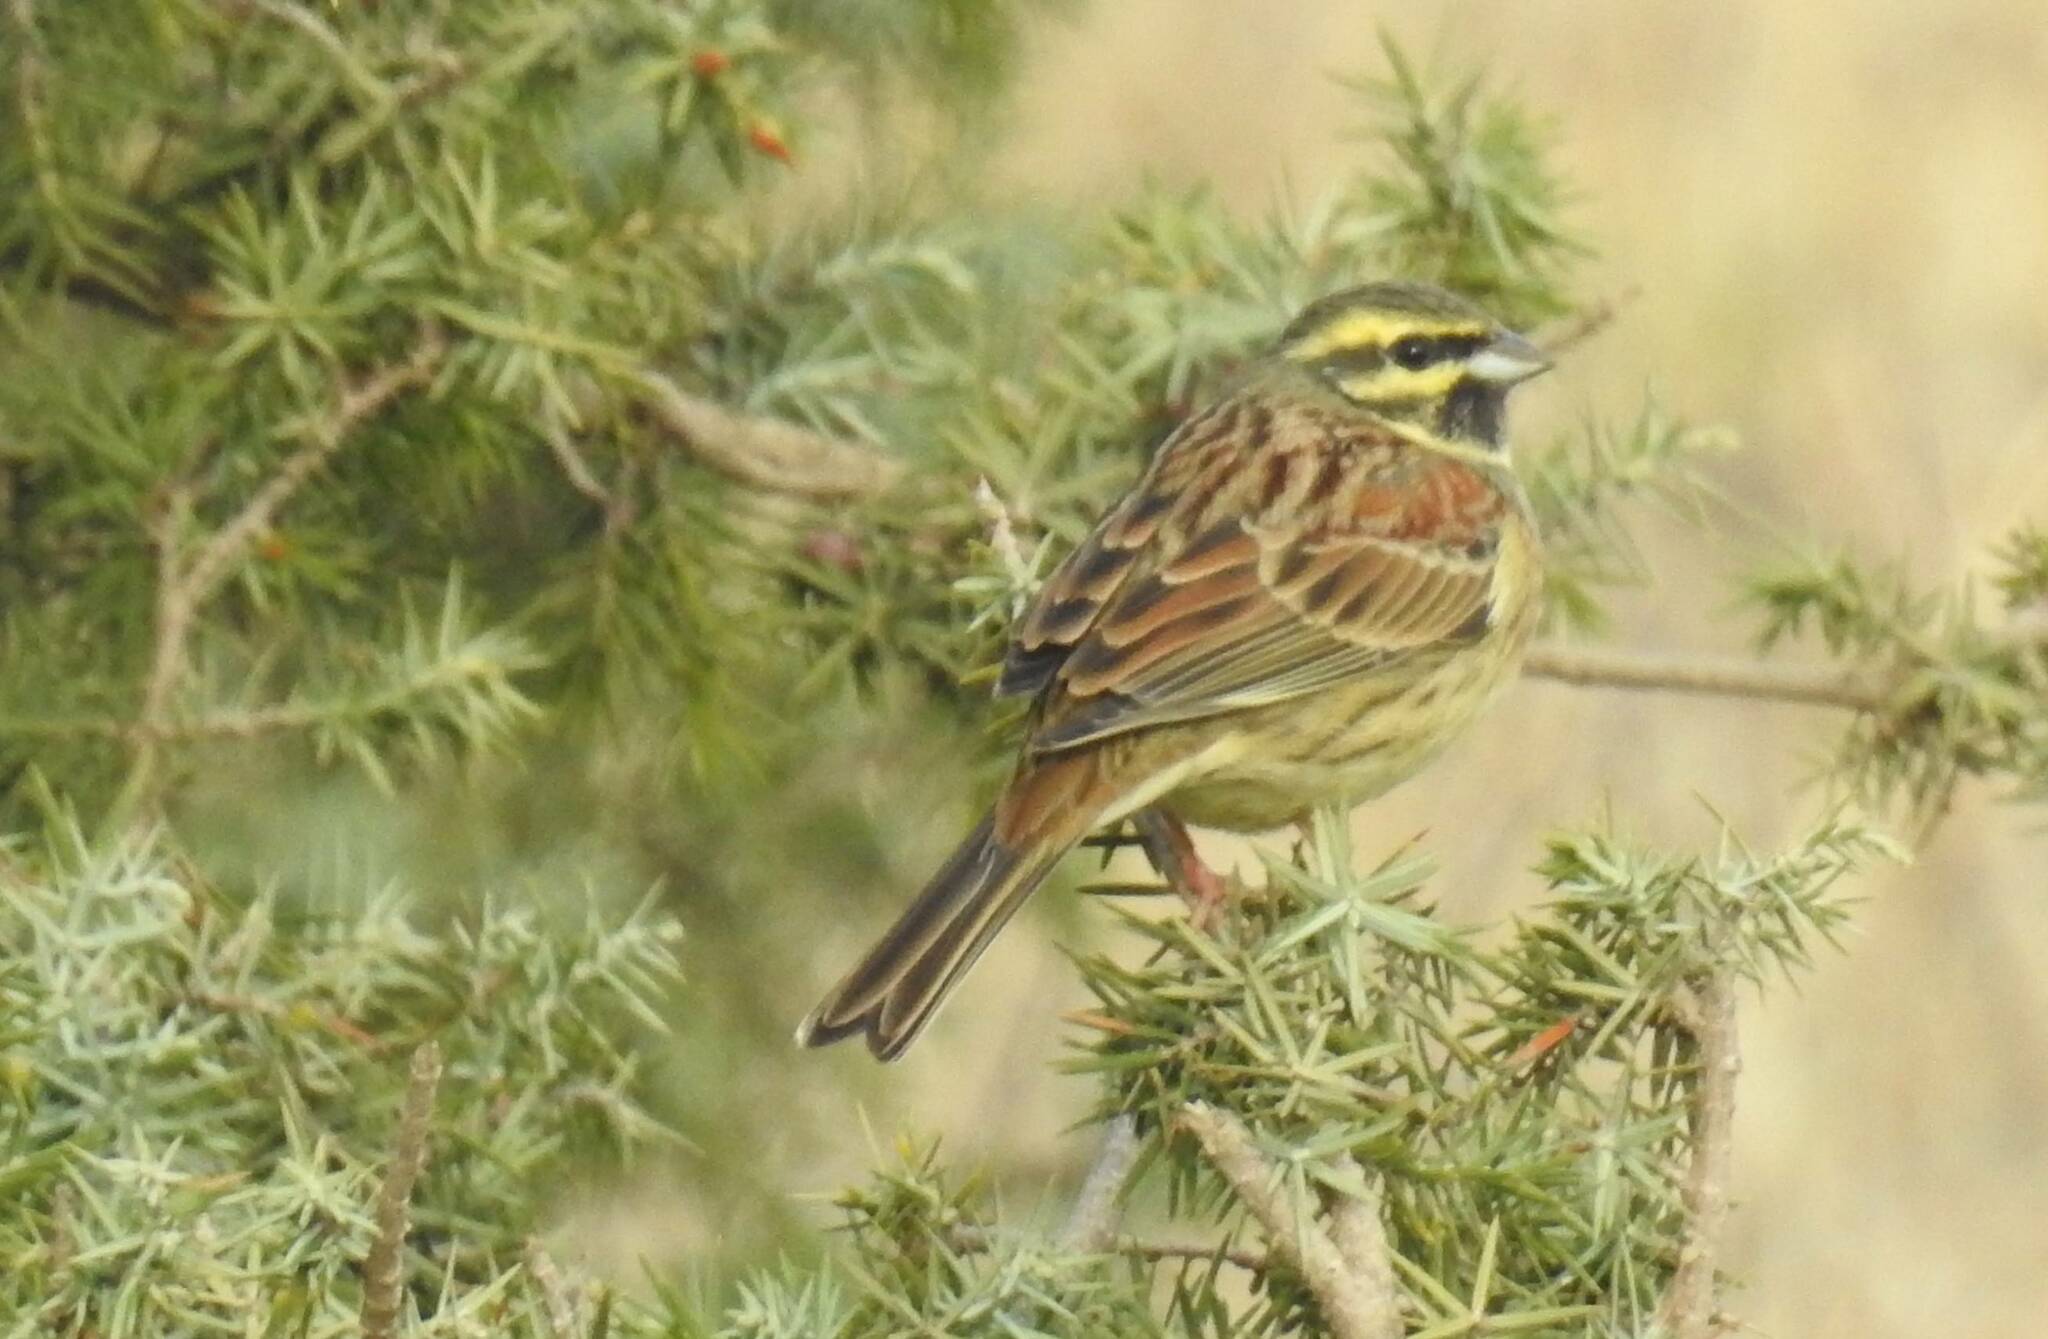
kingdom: Animalia
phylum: Chordata
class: Aves
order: Passeriformes
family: Emberizidae
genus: Emberiza
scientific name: Emberiza cirlus
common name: Cirl bunting
